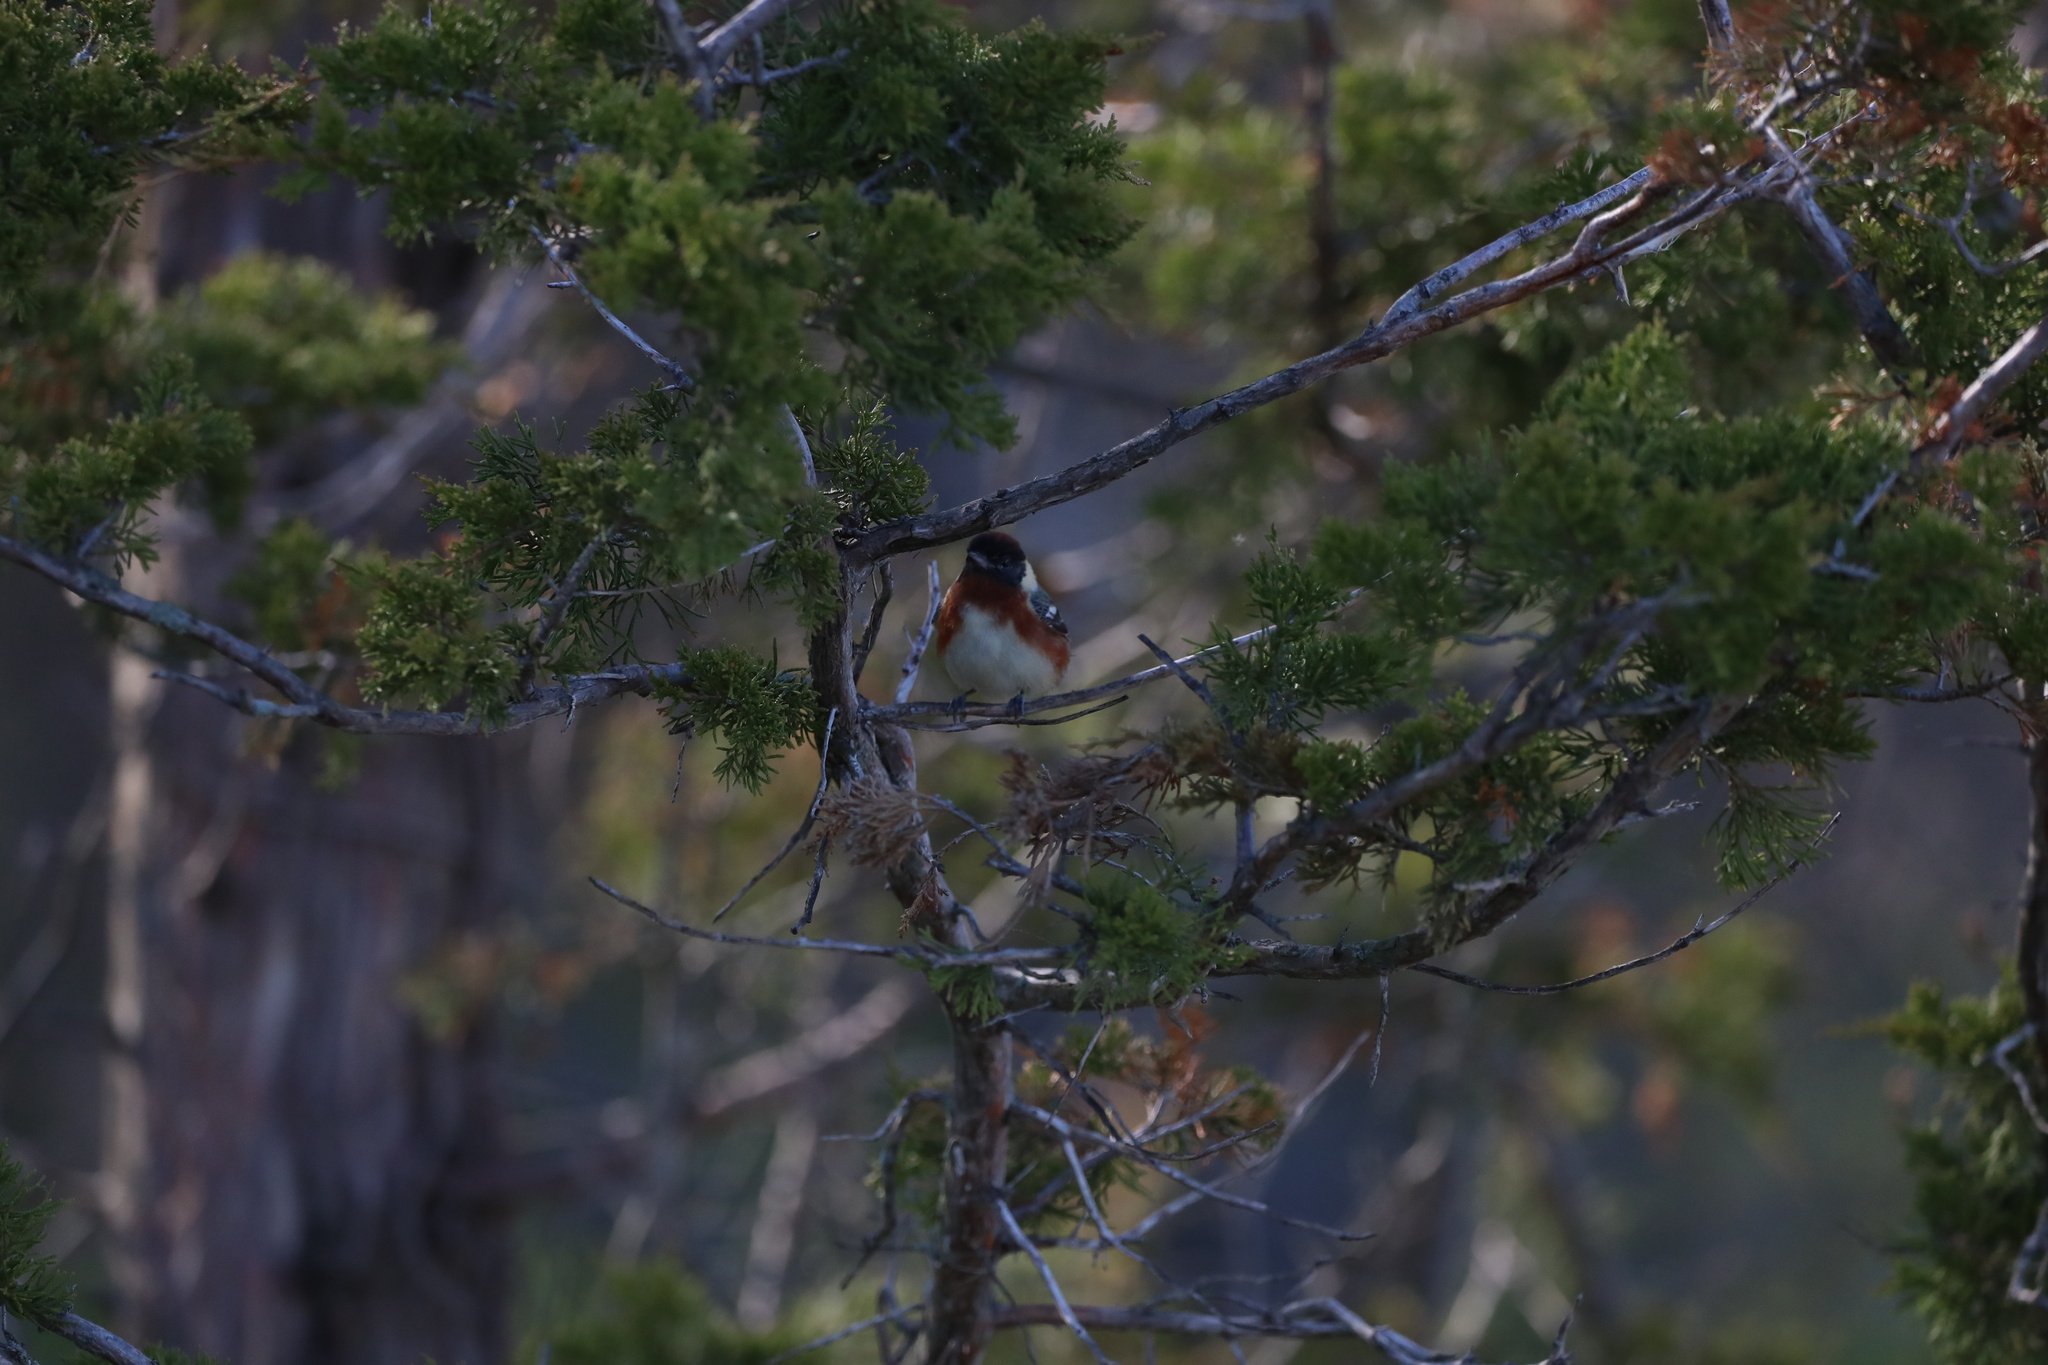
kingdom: Animalia
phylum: Chordata
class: Aves
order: Passeriformes
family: Parulidae
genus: Setophaga
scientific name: Setophaga castanea
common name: Bay-breasted warbler
